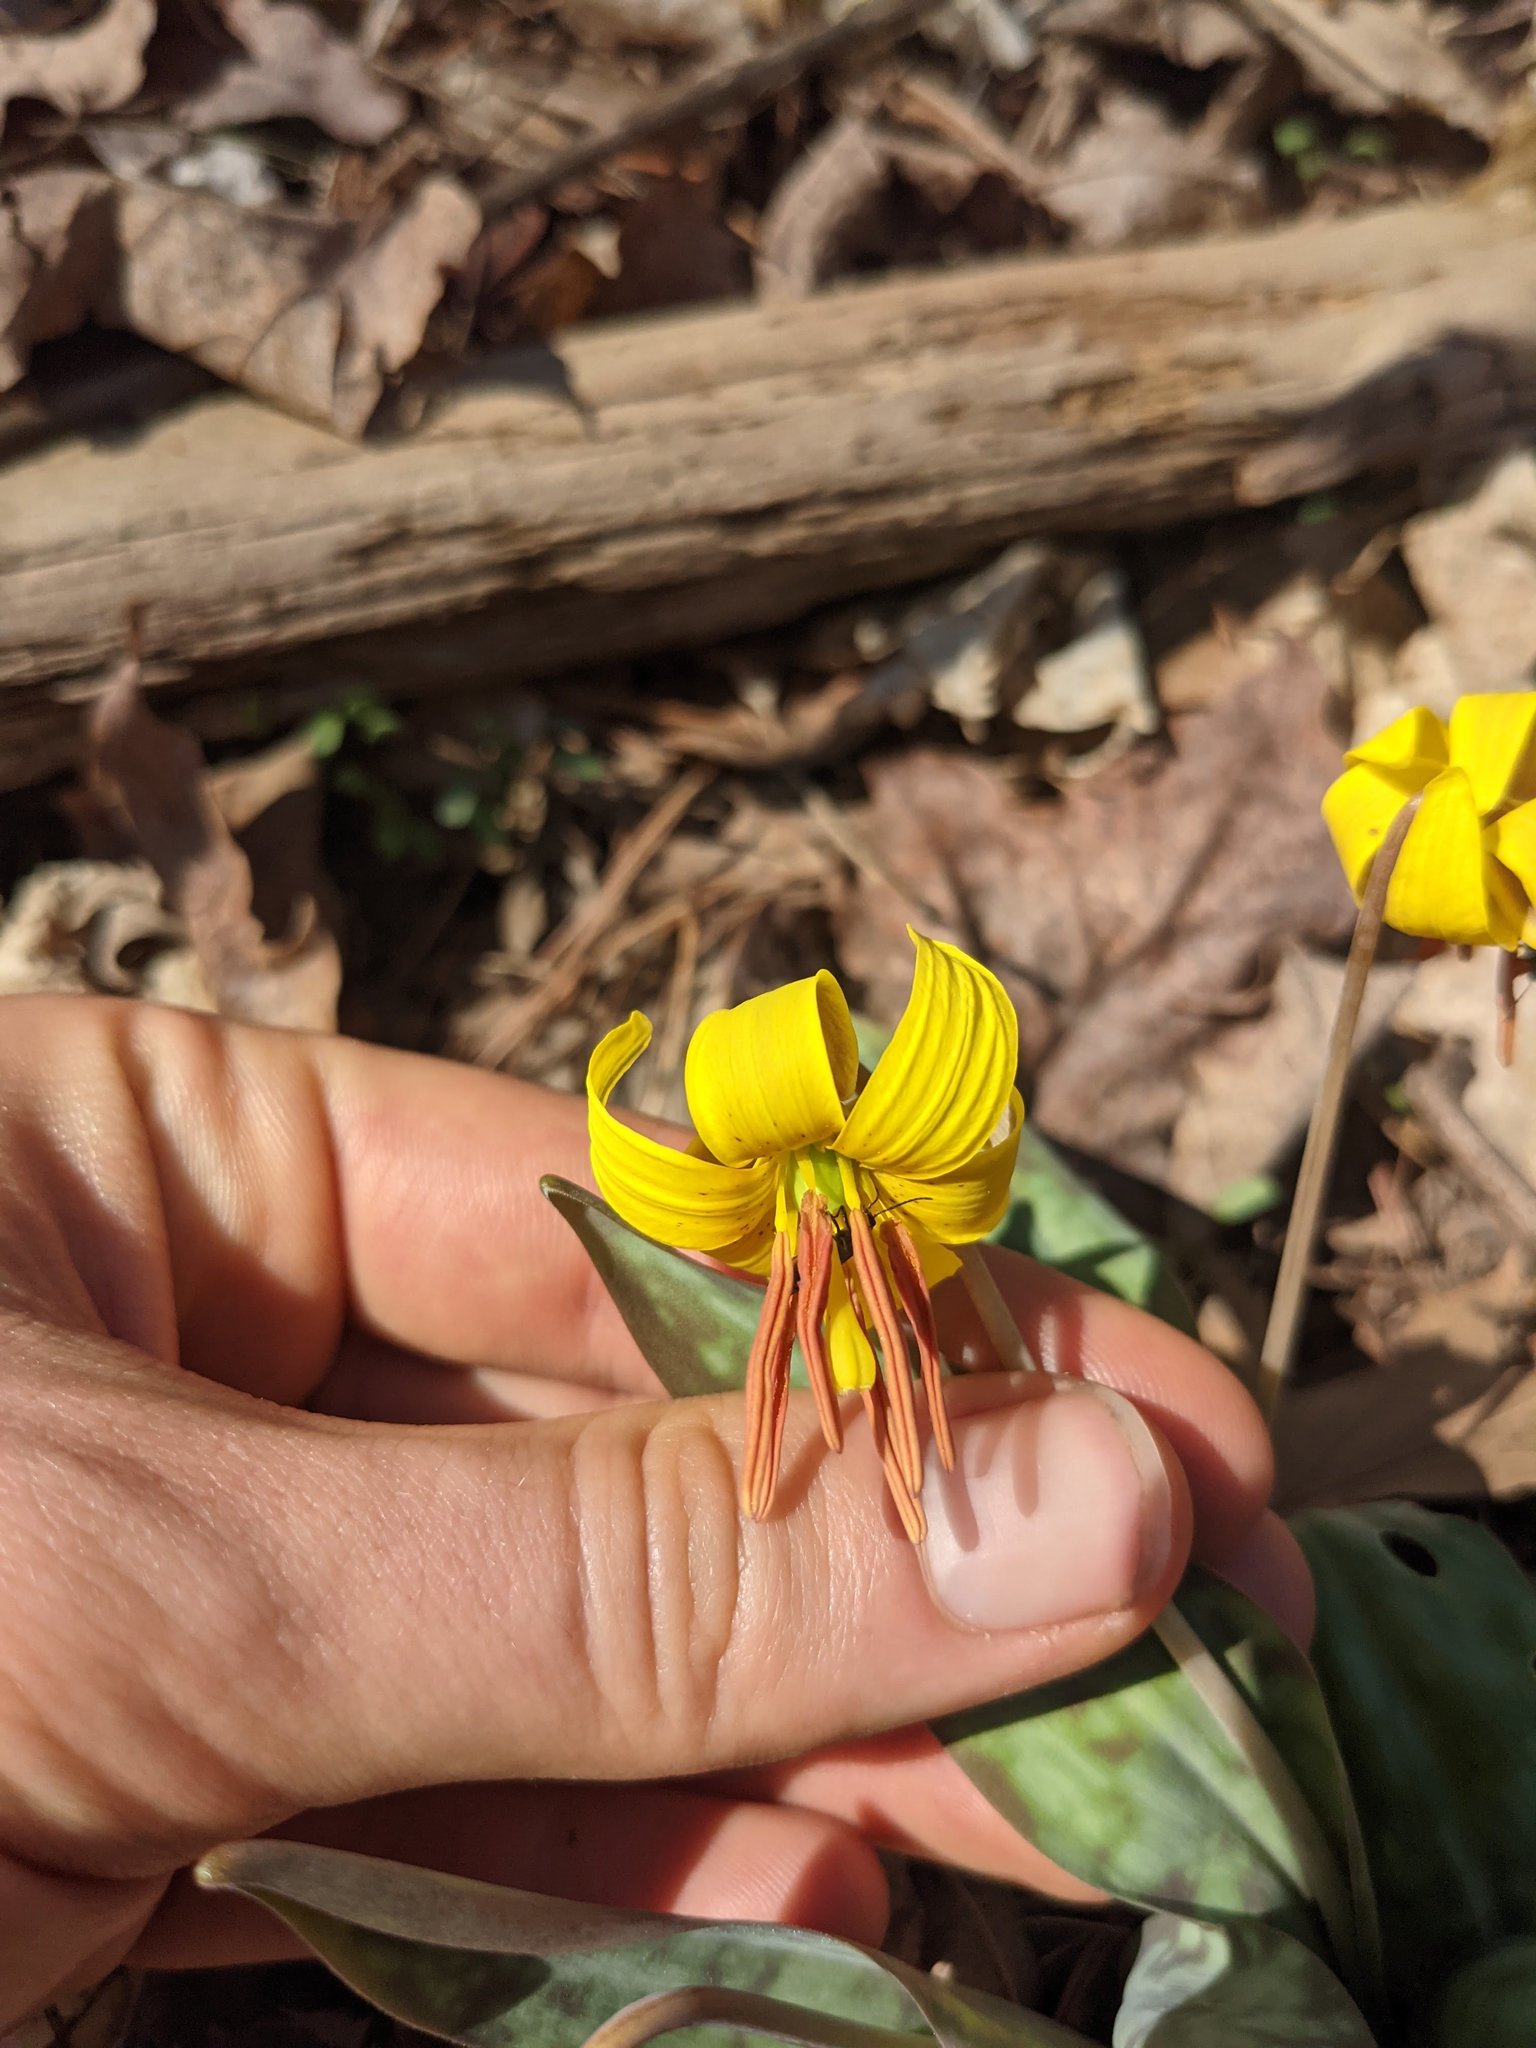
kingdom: Plantae
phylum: Tracheophyta
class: Liliopsida
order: Liliales
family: Liliaceae
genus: Erythronium
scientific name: Erythronium americanum
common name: Yellow adder's-tongue
